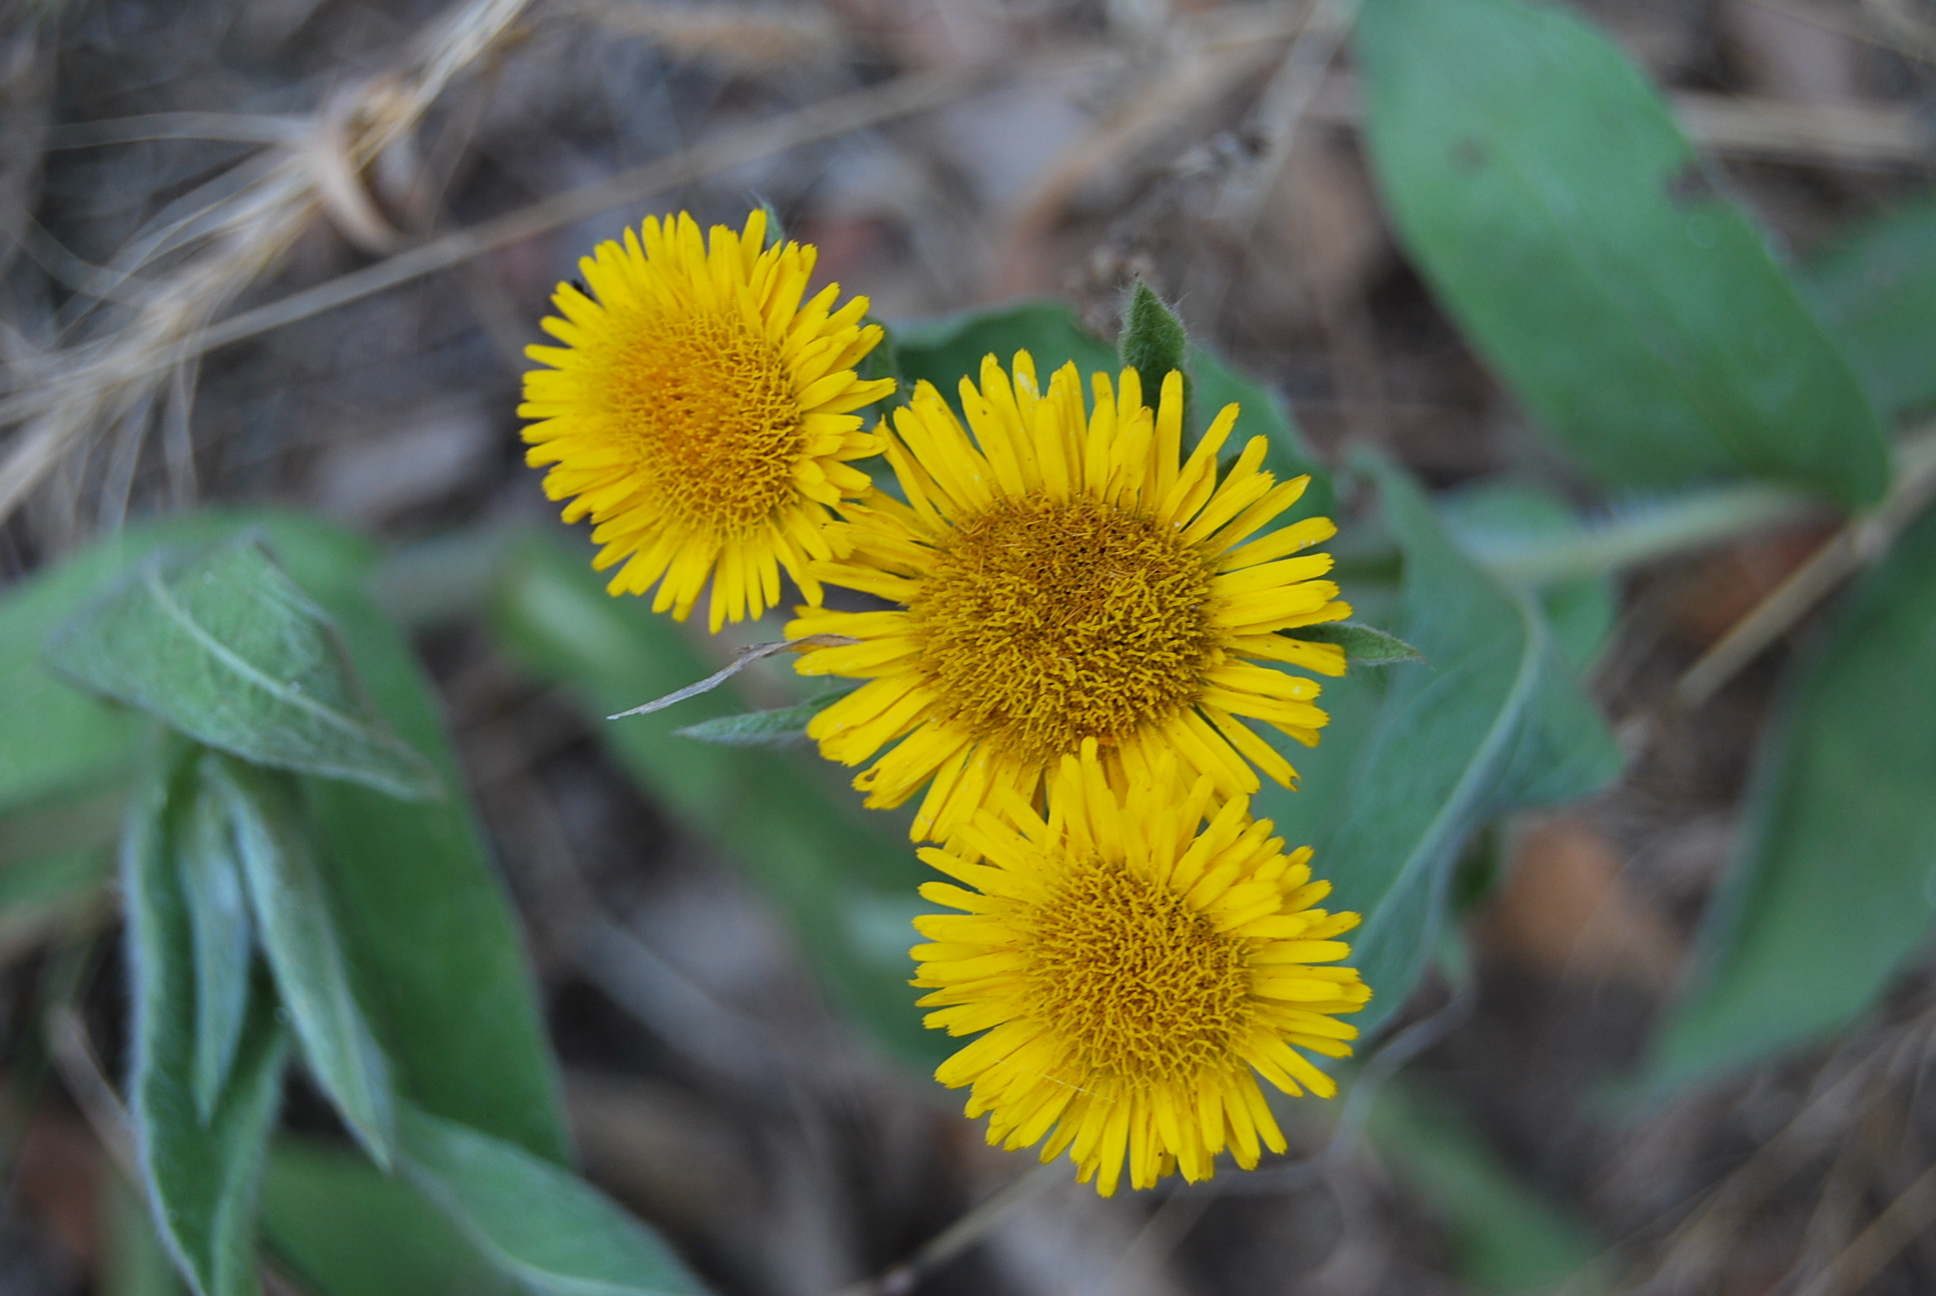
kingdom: Plantae
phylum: Tracheophyta
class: Magnoliopsida
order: Asterales
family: Asteraceae
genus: Pentanema
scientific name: Pentanema helenioides
